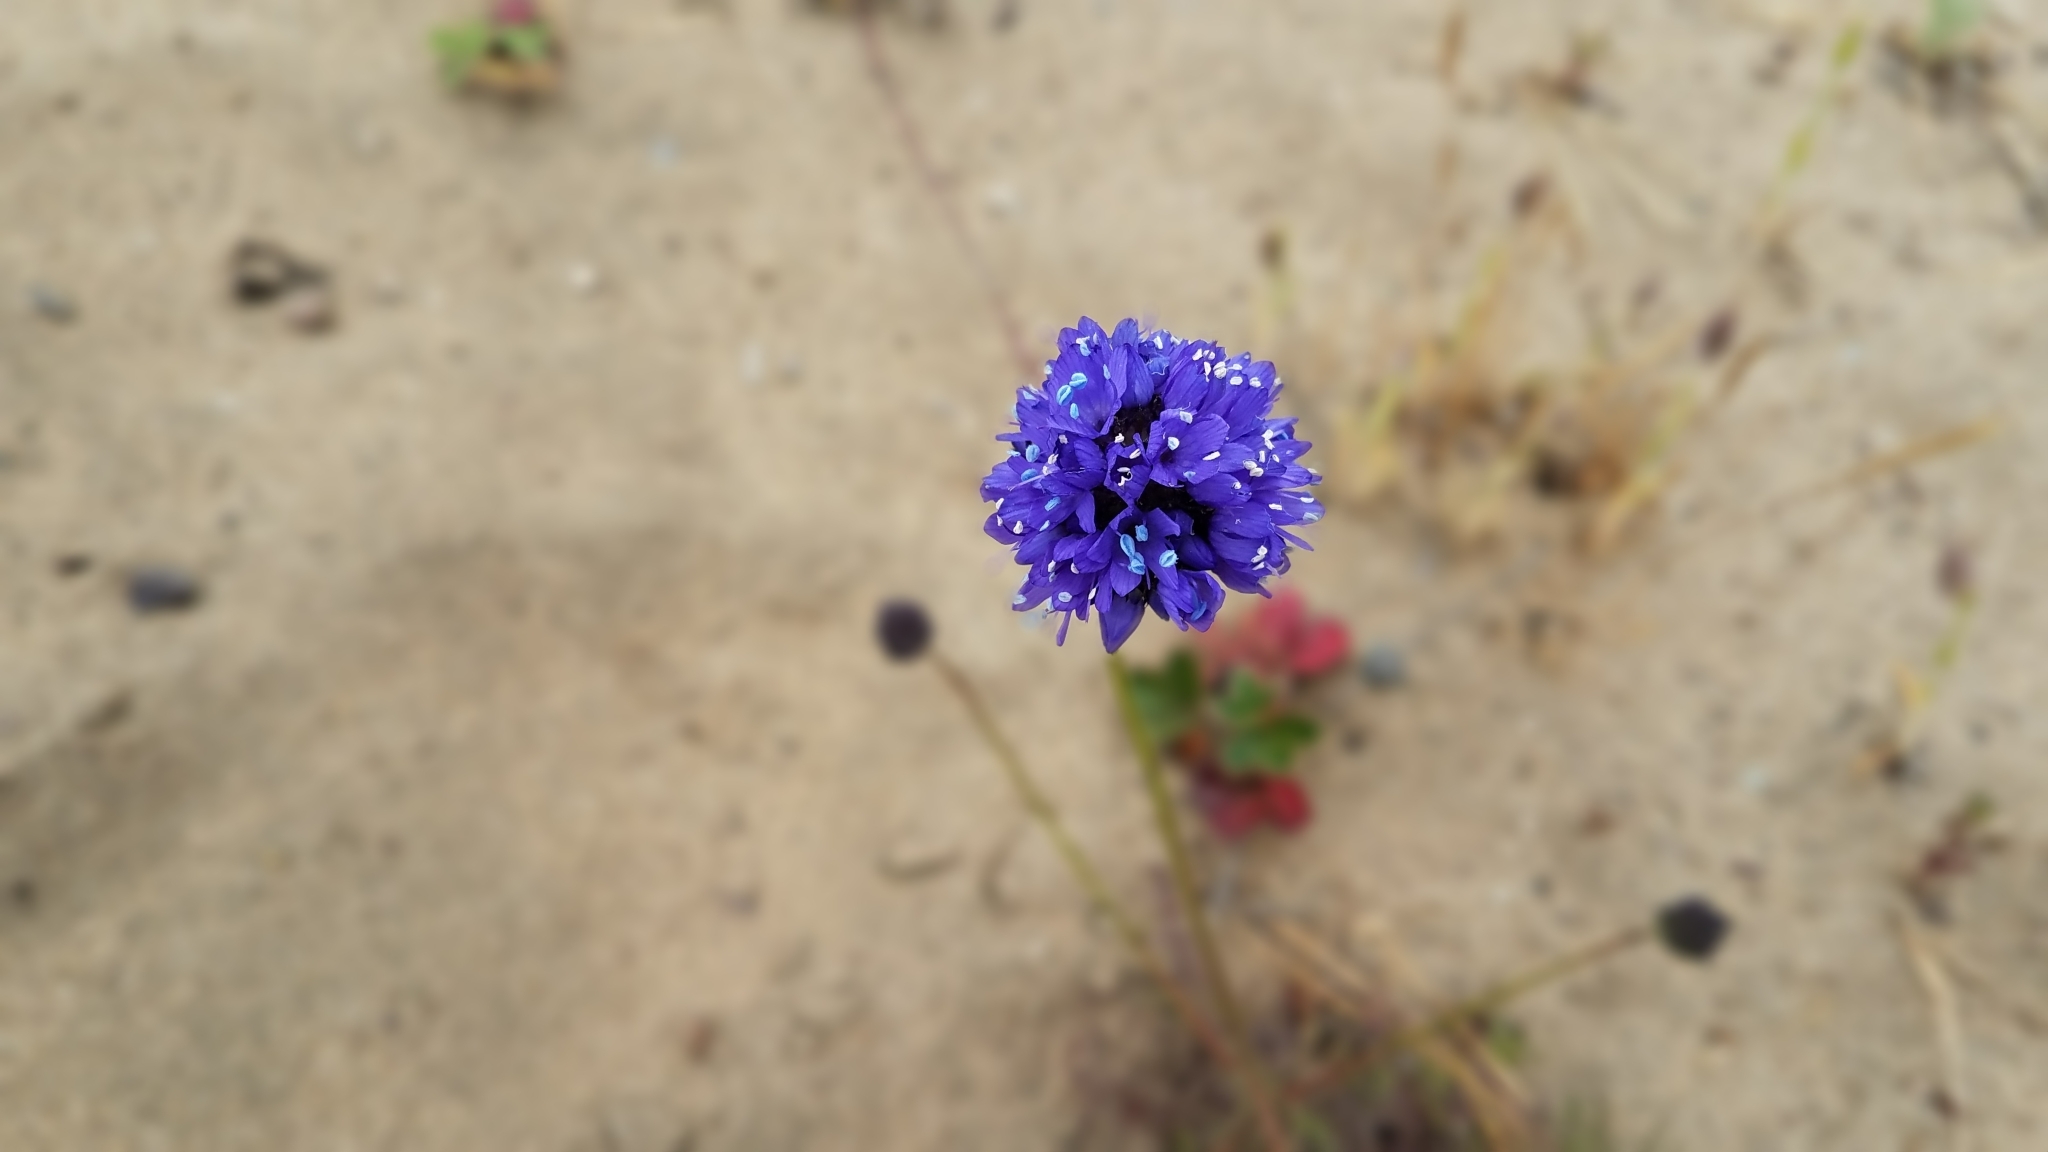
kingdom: Plantae
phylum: Tracheophyta
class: Magnoliopsida
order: Ericales
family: Polemoniaceae
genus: Gilia
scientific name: Gilia capitata
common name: Bluehead gilia
